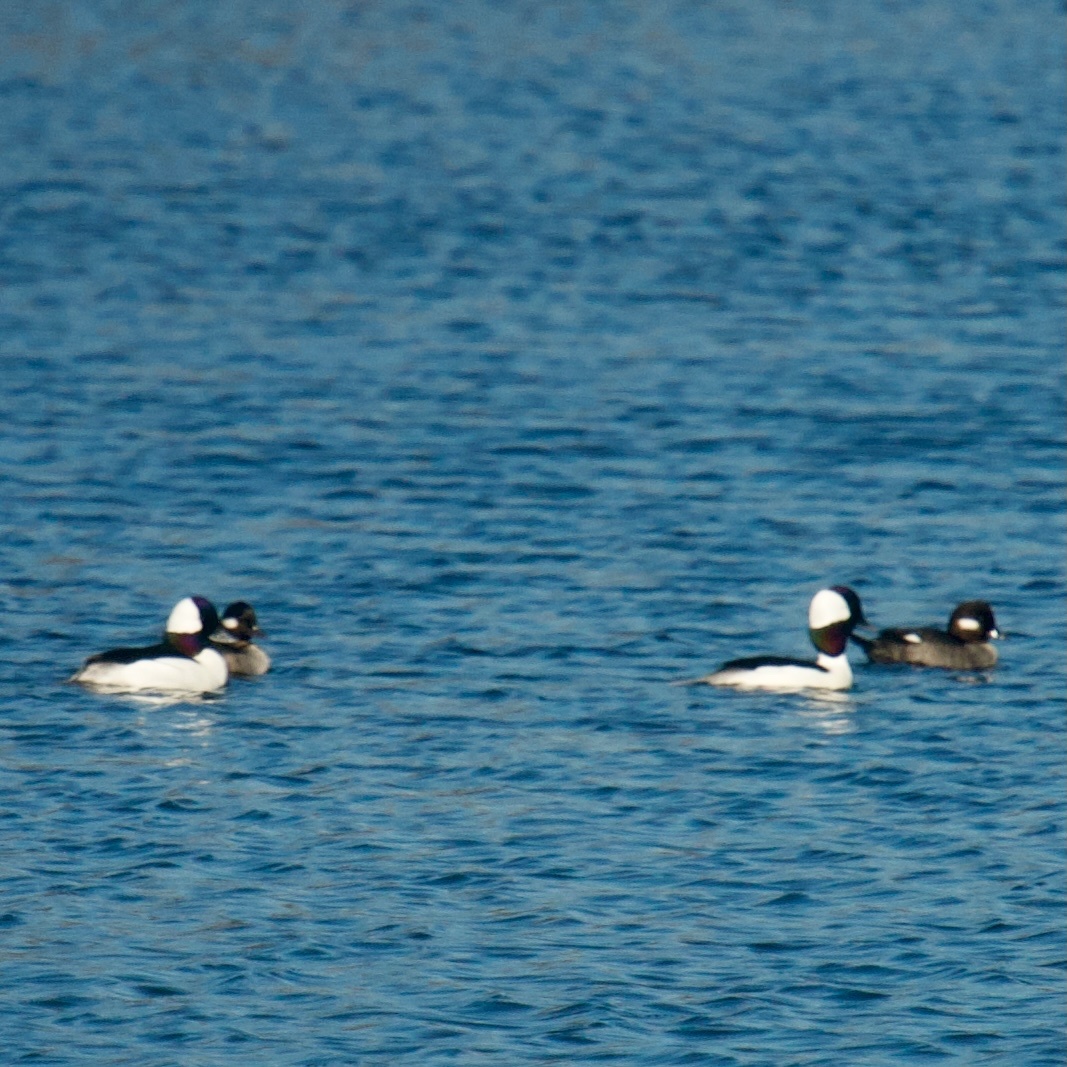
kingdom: Animalia
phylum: Chordata
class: Aves
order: Anseriformes
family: Anatidae
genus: Bucephala
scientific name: Bucephala albeola
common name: Bufflehead
